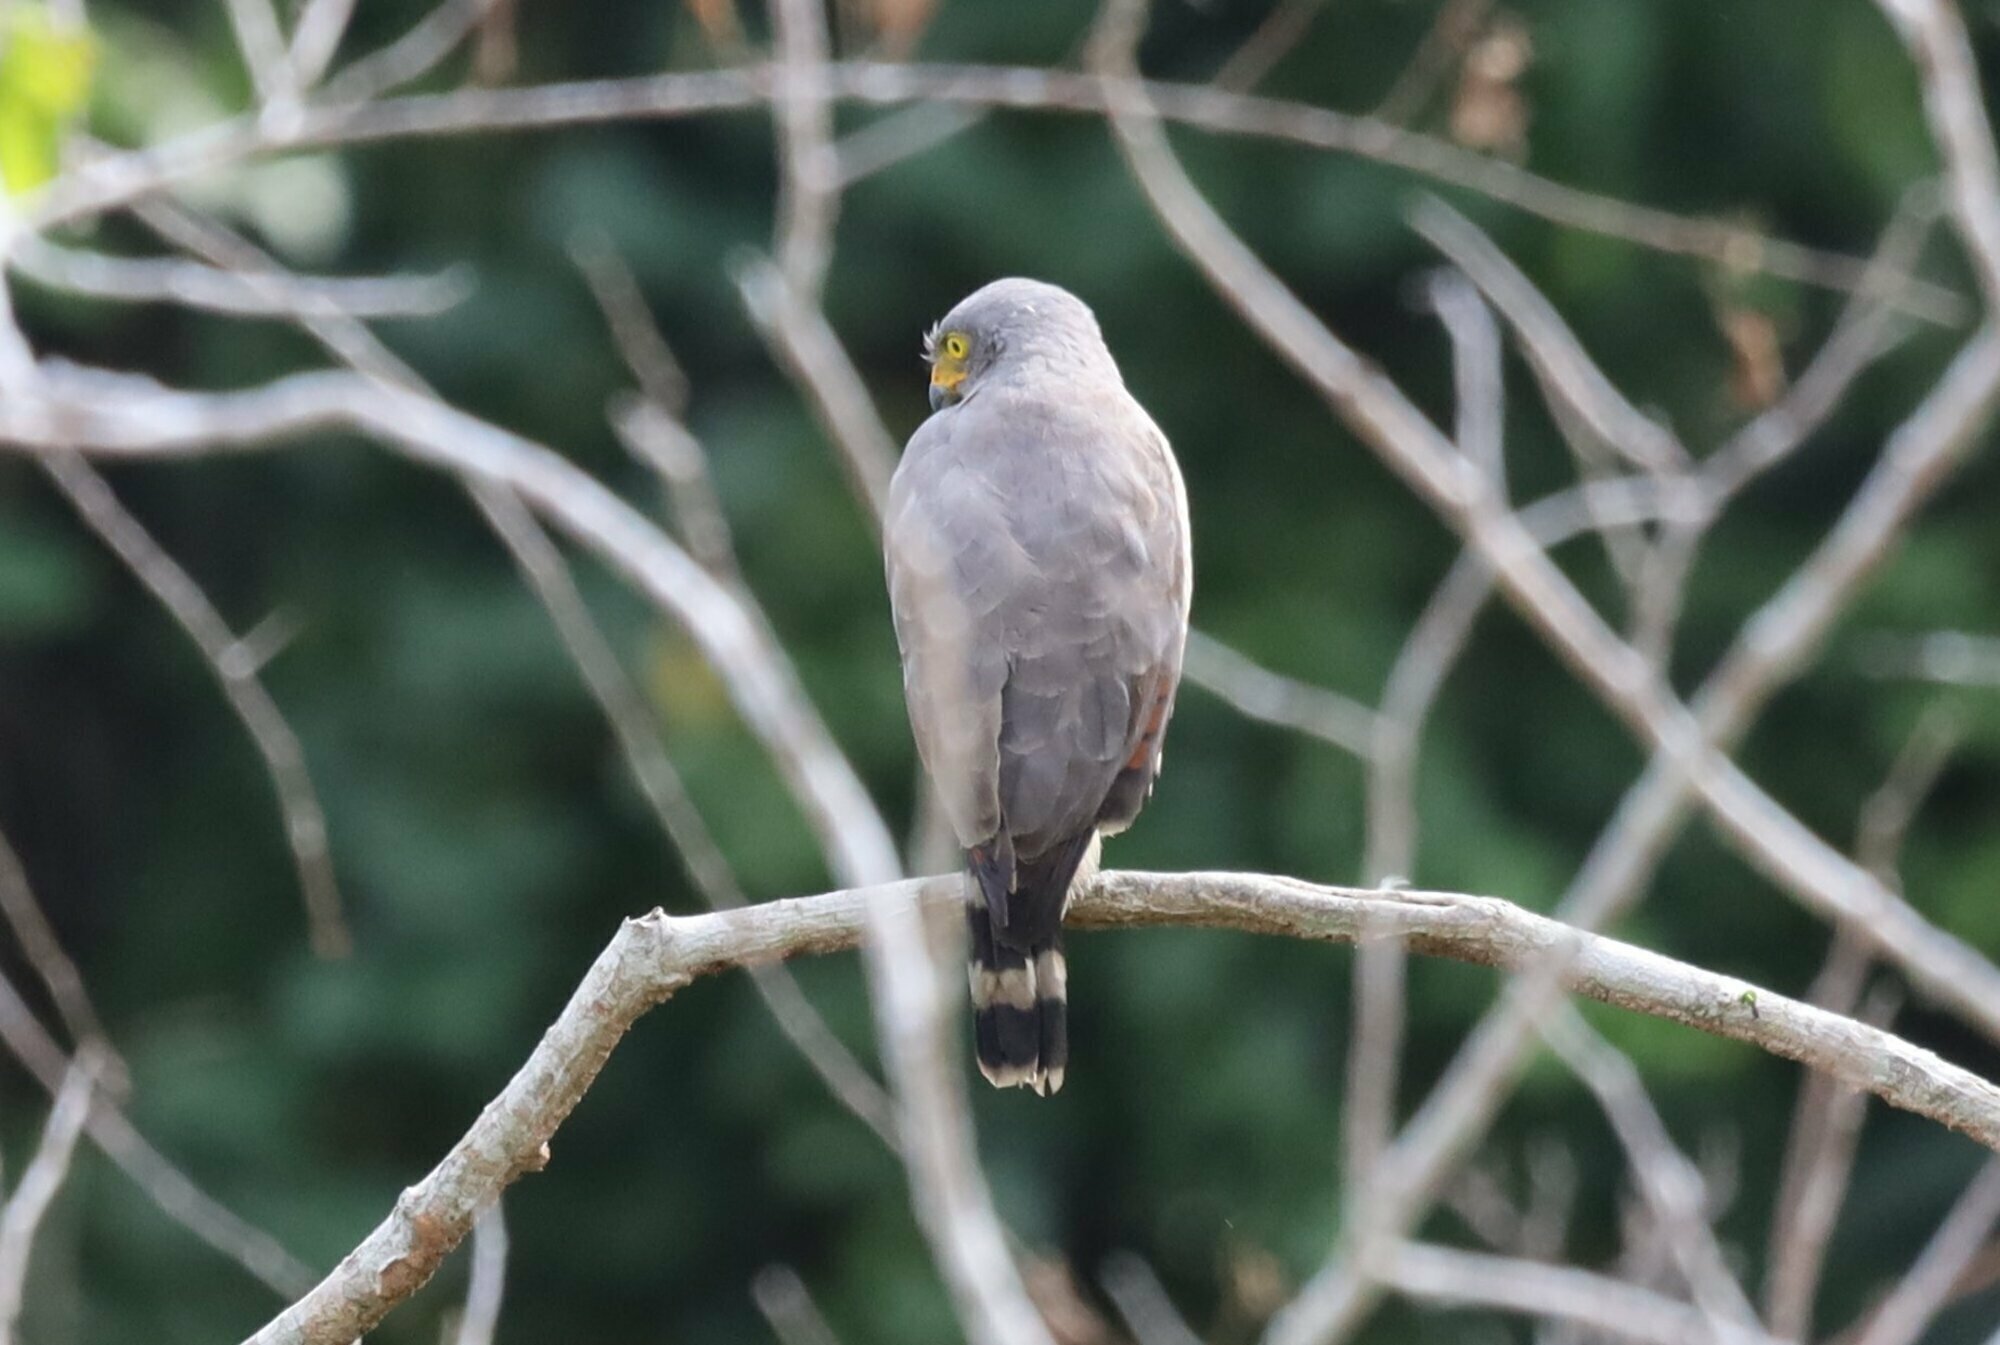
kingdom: Animalia
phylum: Chordata
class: Aves
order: Accipitriformes
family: Accipitridae
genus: Rupornis
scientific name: Rupornis magnirostris
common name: Roadside hawk
